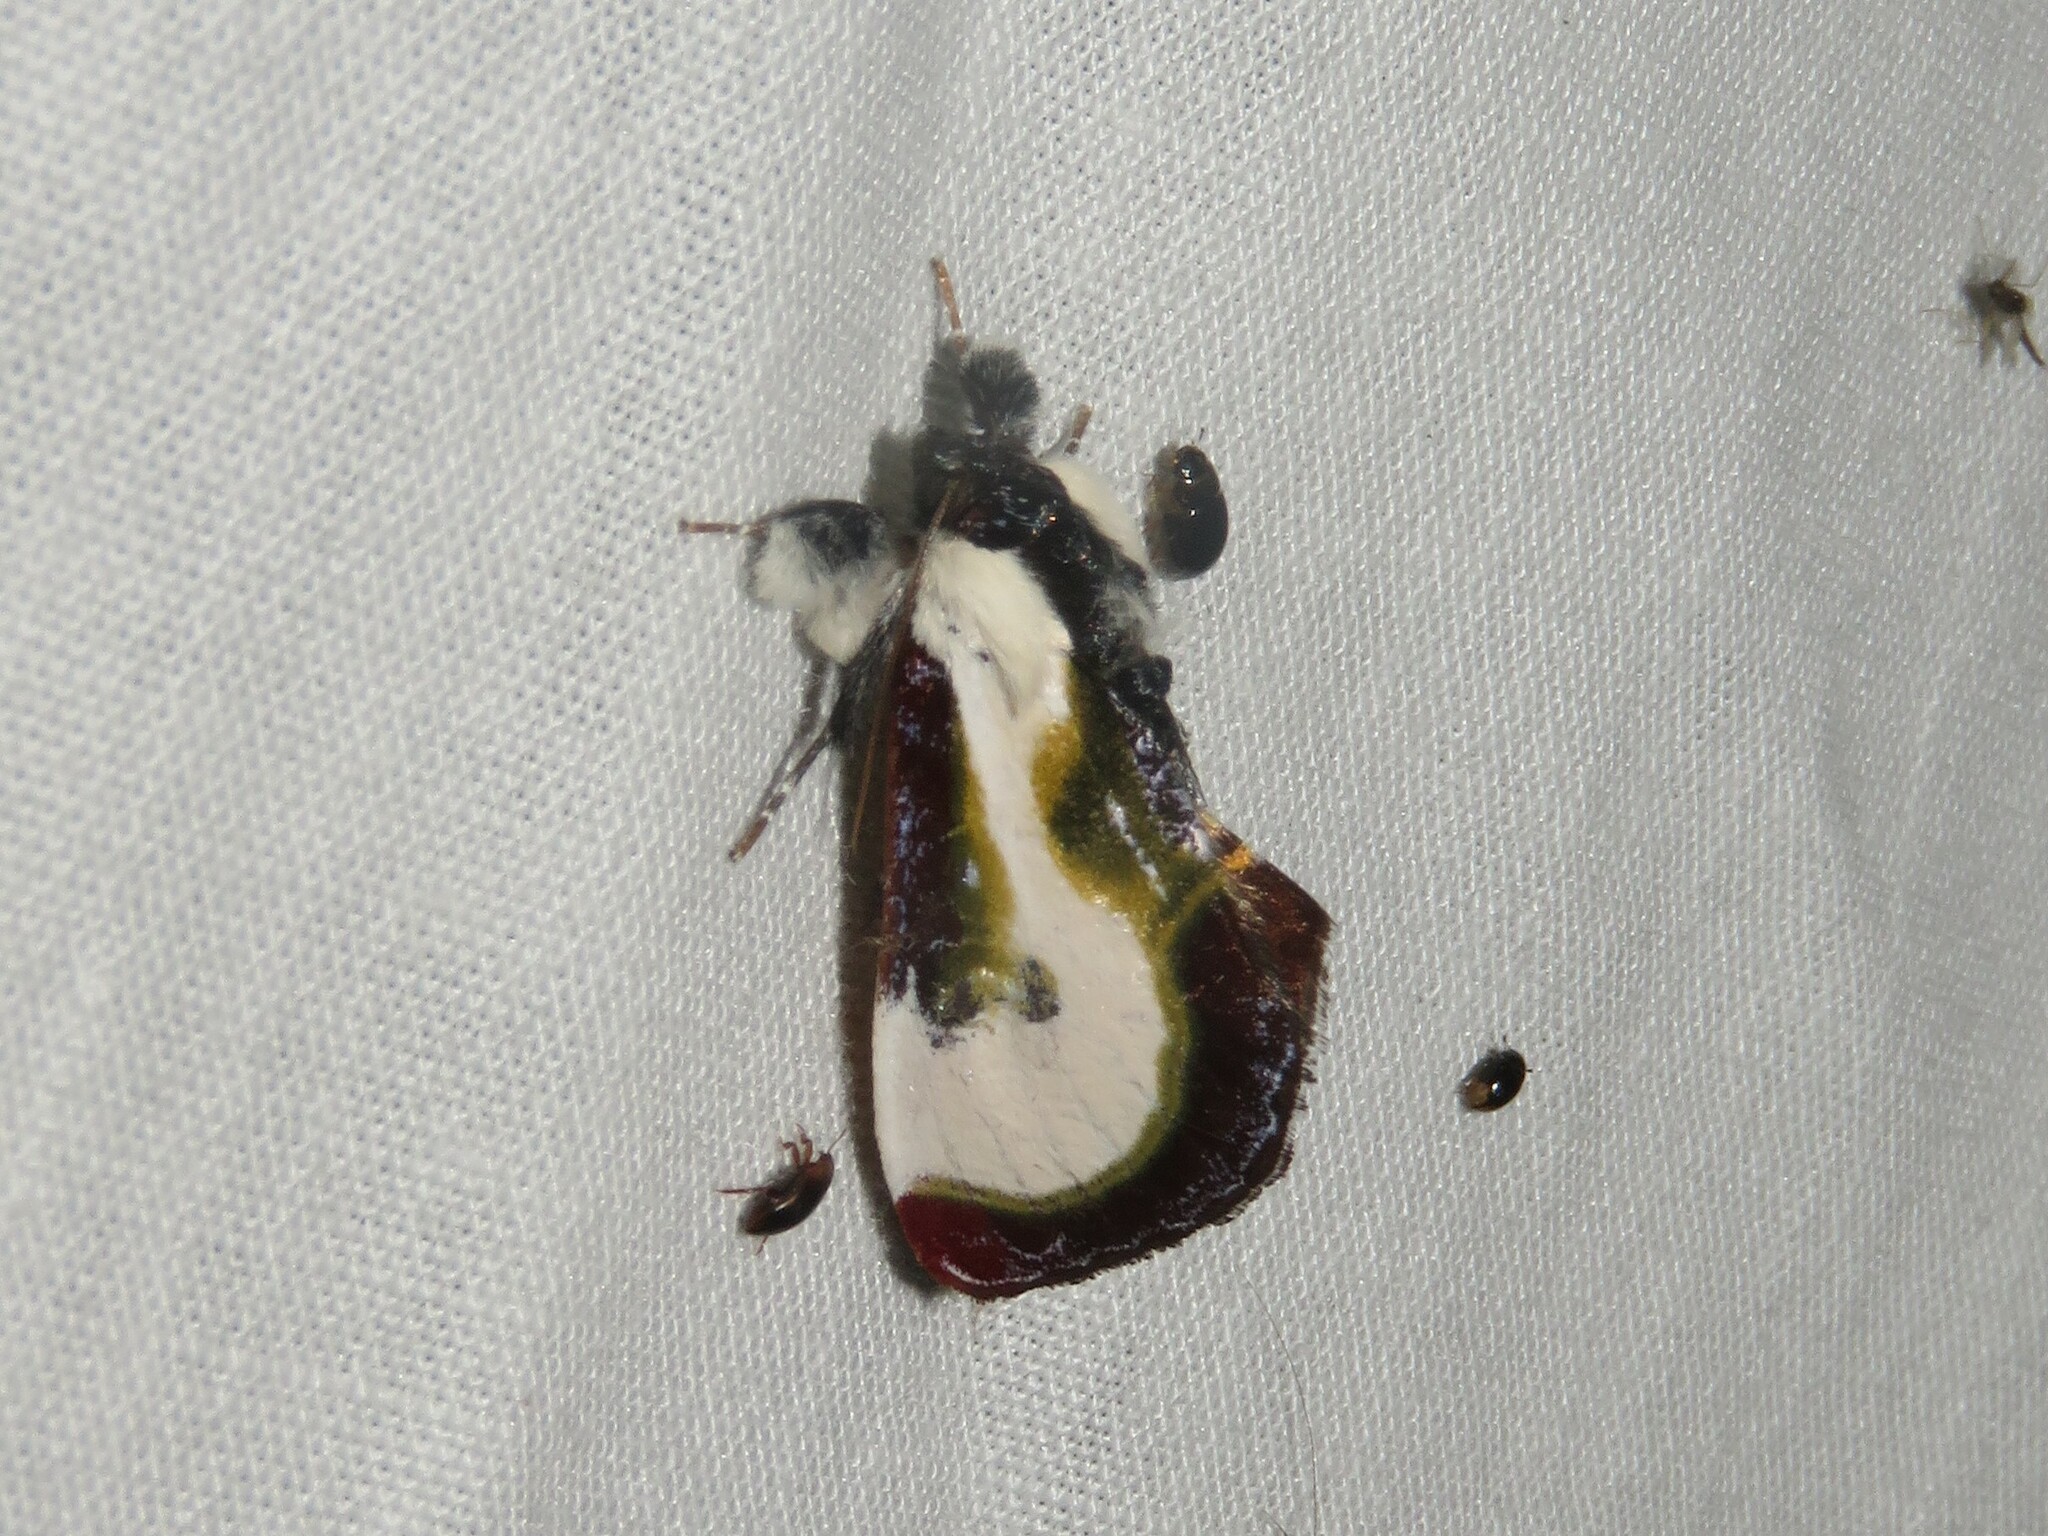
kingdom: Animalia
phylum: Arthropoda
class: Insecta
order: Lepidoptera
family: Noctuidae
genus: Eudryas
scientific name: Eudryas grata
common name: Beautiful wood-nymph
